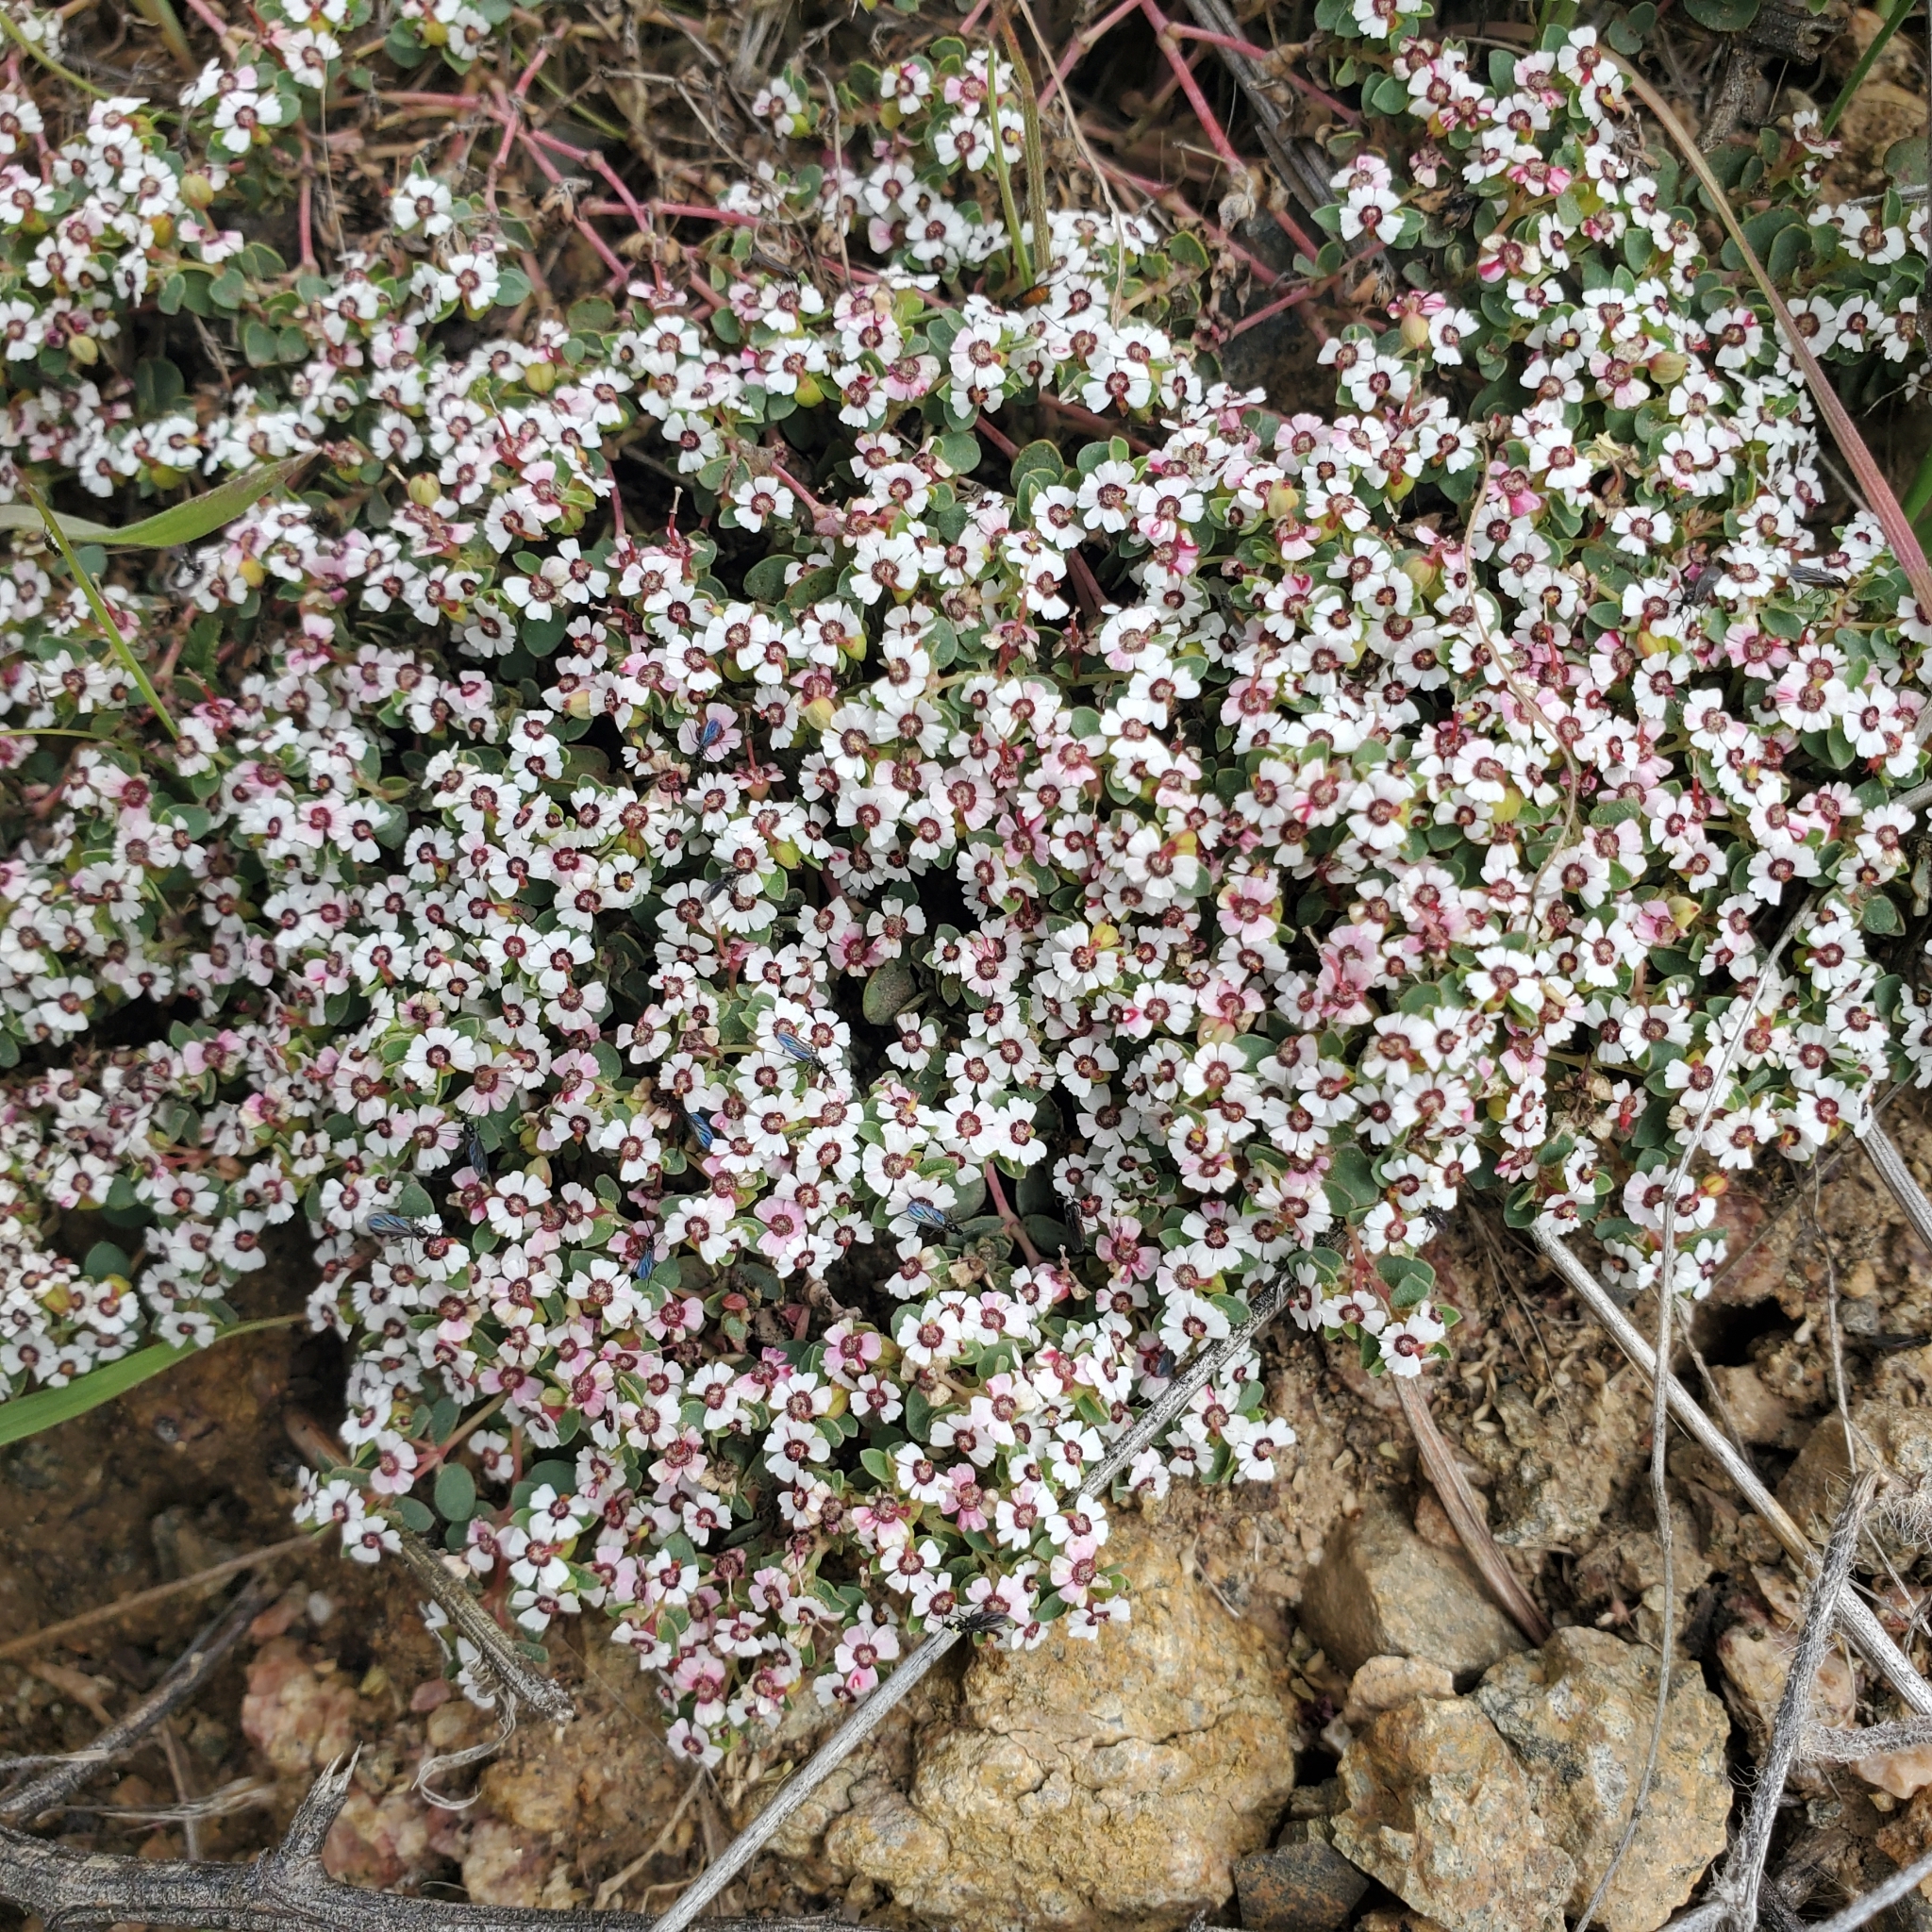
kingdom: Plantae
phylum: Tracheophyta
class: Magnoliopsida
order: Malpighiales
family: Euphorbiaceae
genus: Euphorbia
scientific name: Euphorbia polycarpa
